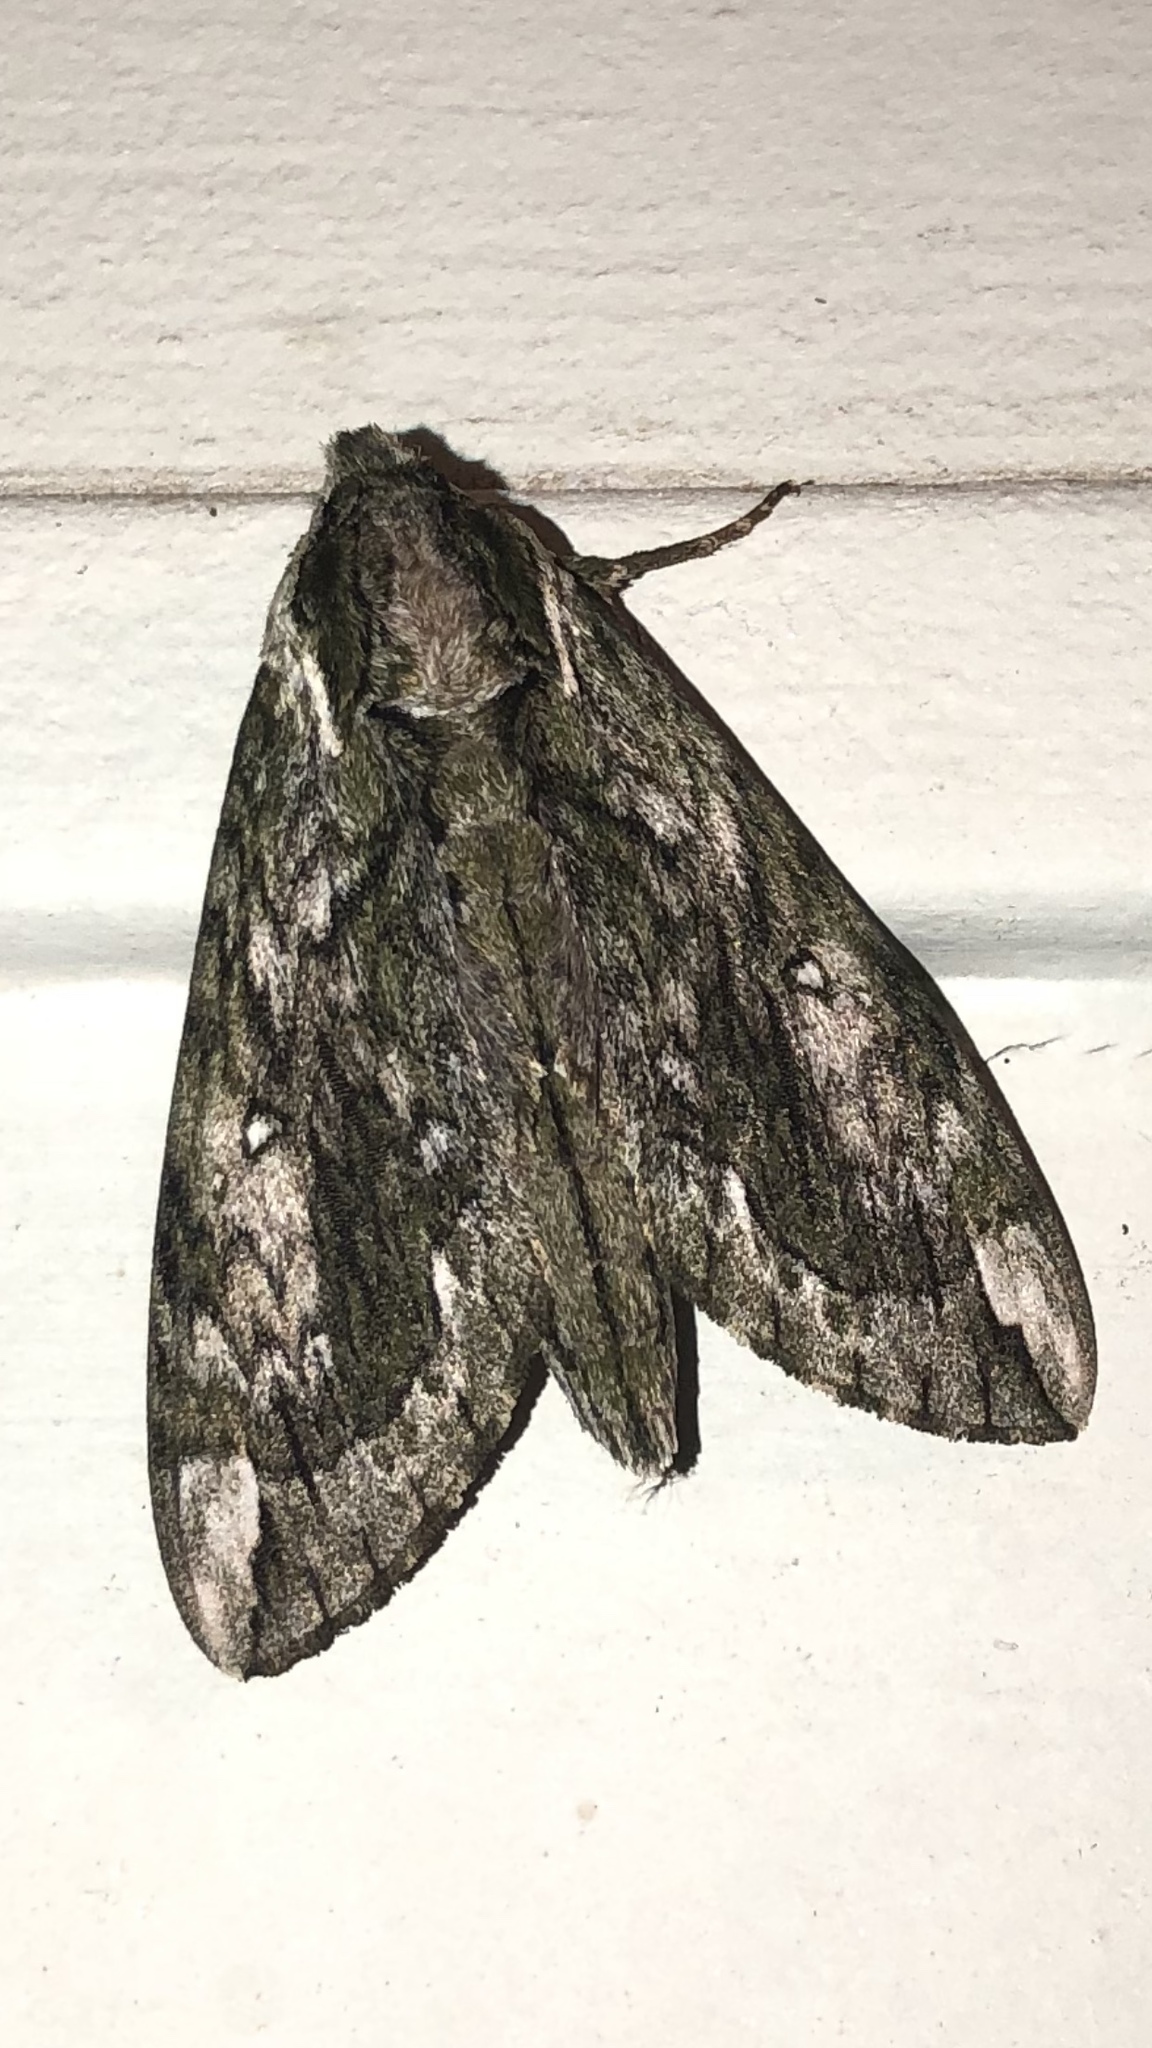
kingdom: Animalia
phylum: Arthropoda
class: Insecta
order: Lepidoptera
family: Sphingidae
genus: Ceratomia
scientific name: Ceratomia hageni
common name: Hagen's sphinx
